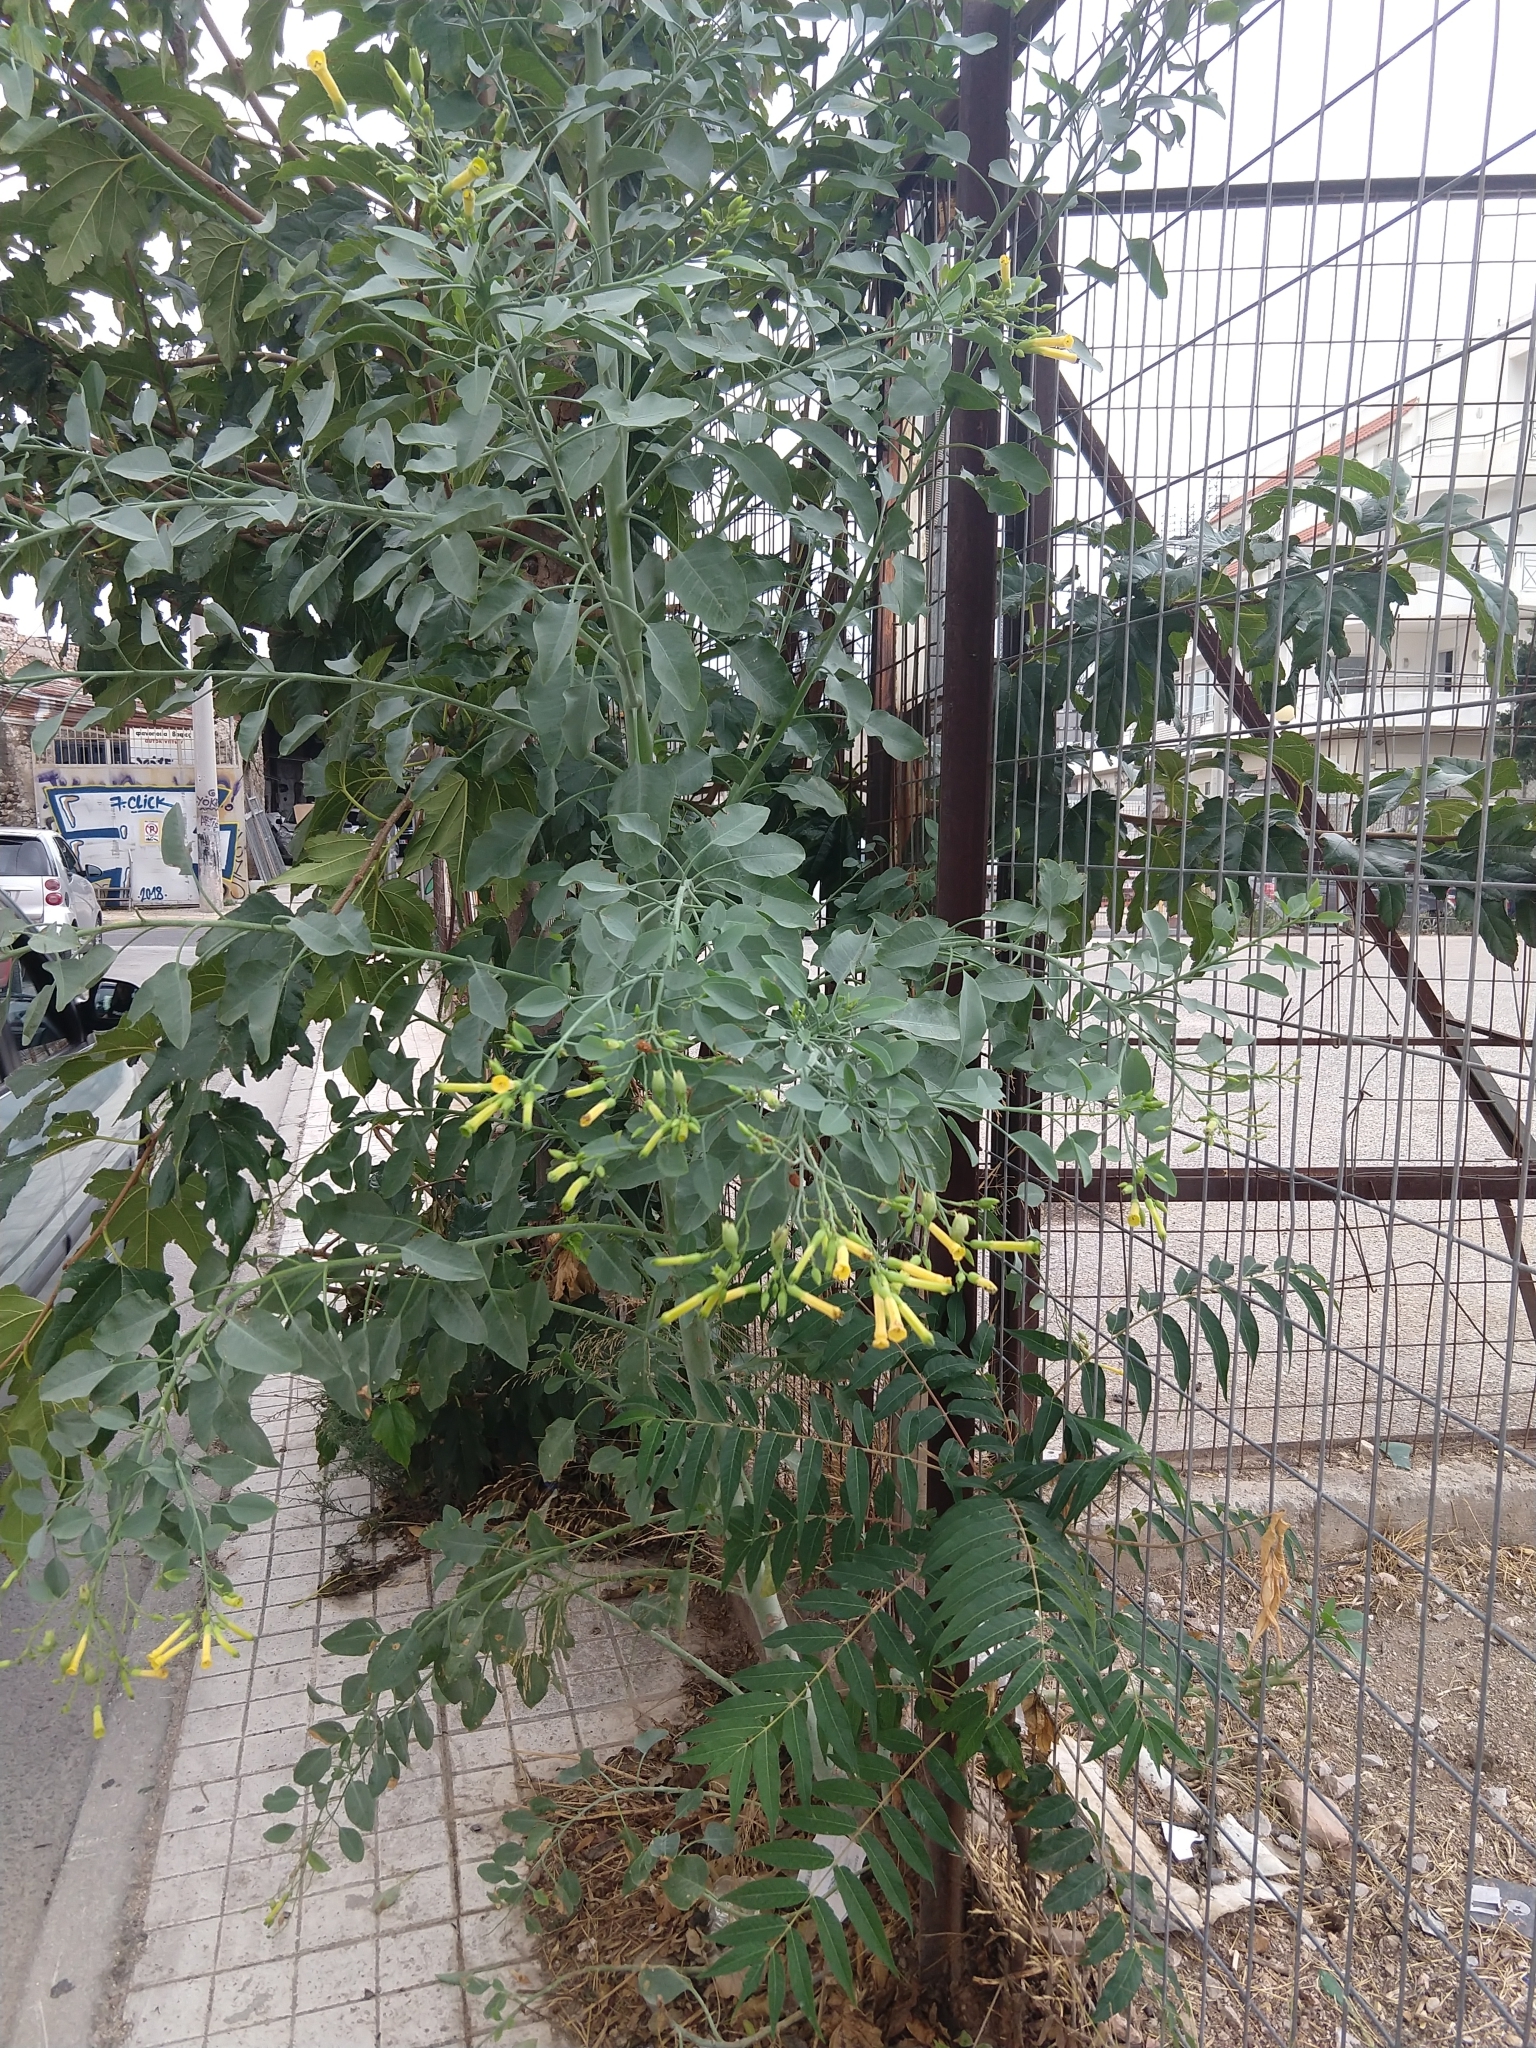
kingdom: Plantae
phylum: Tracheophyta
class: Magnoliopsida
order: Solanales
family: Solanaceae
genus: Nicotiana
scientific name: Nicotiana glauca
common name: Tree tobacco
